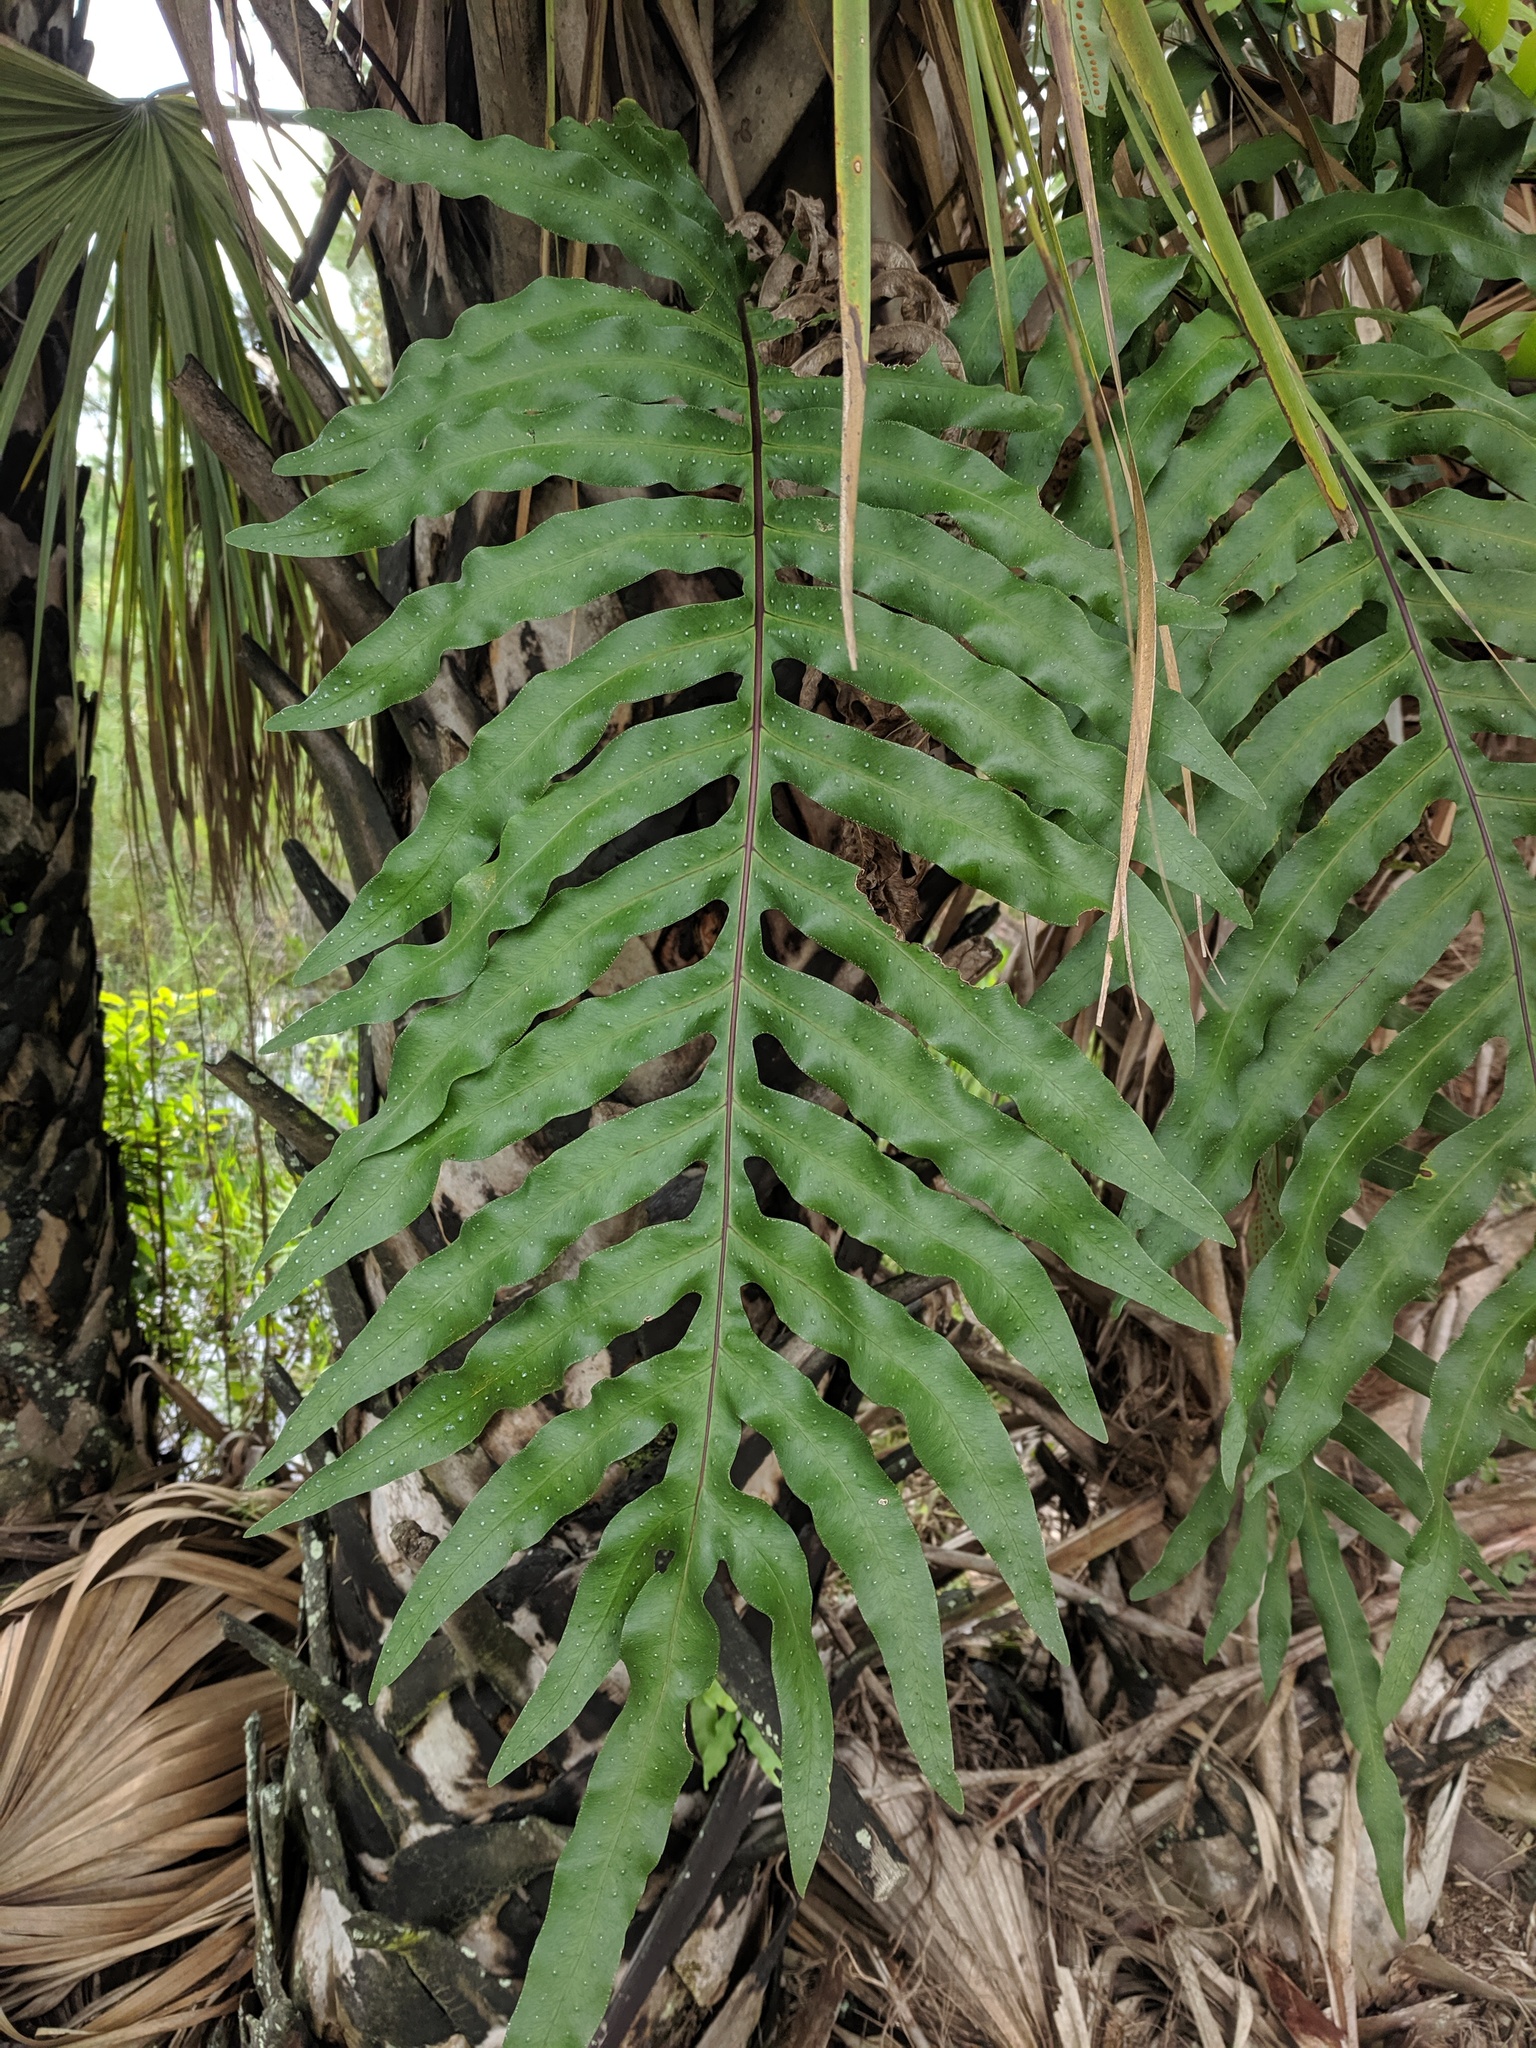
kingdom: Plantae
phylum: Tracheophyta
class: Polypodiopsida
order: Polypodiales
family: Polypodiaceae
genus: Phlebodium
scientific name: Phlebodium aureum
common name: Gold-foot fern
